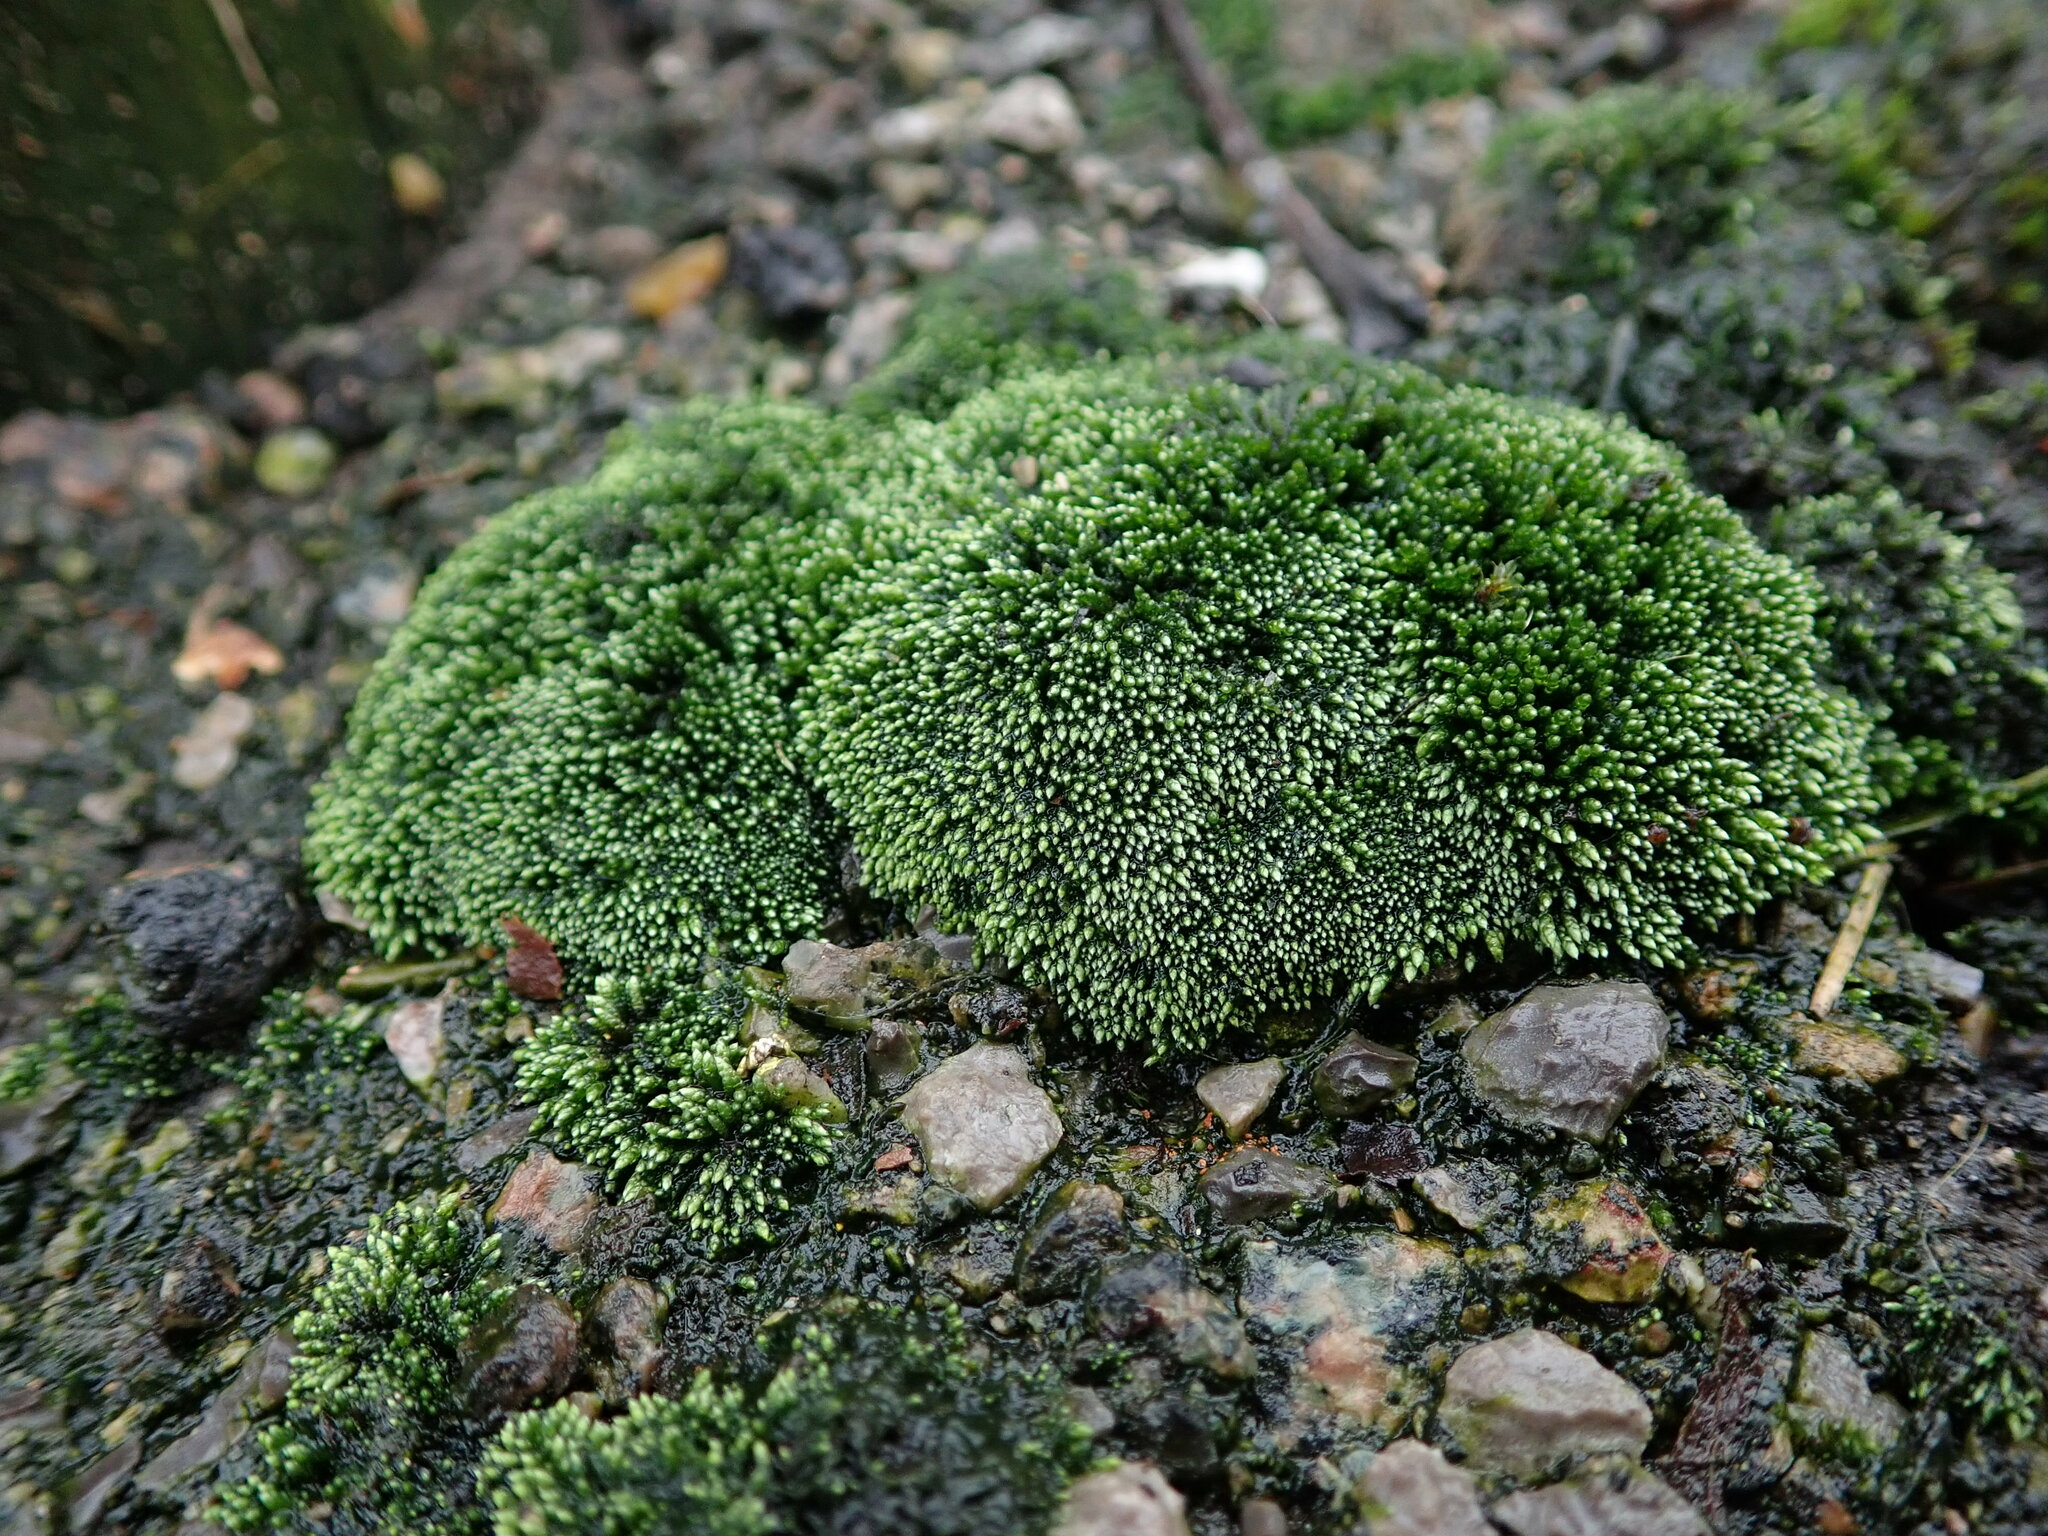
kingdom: Plantae
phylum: Bryophyta
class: Bryopsida
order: Bryales
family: Bryaceae
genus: Bryum
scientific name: Bryum argenteum
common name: Silver-moss
